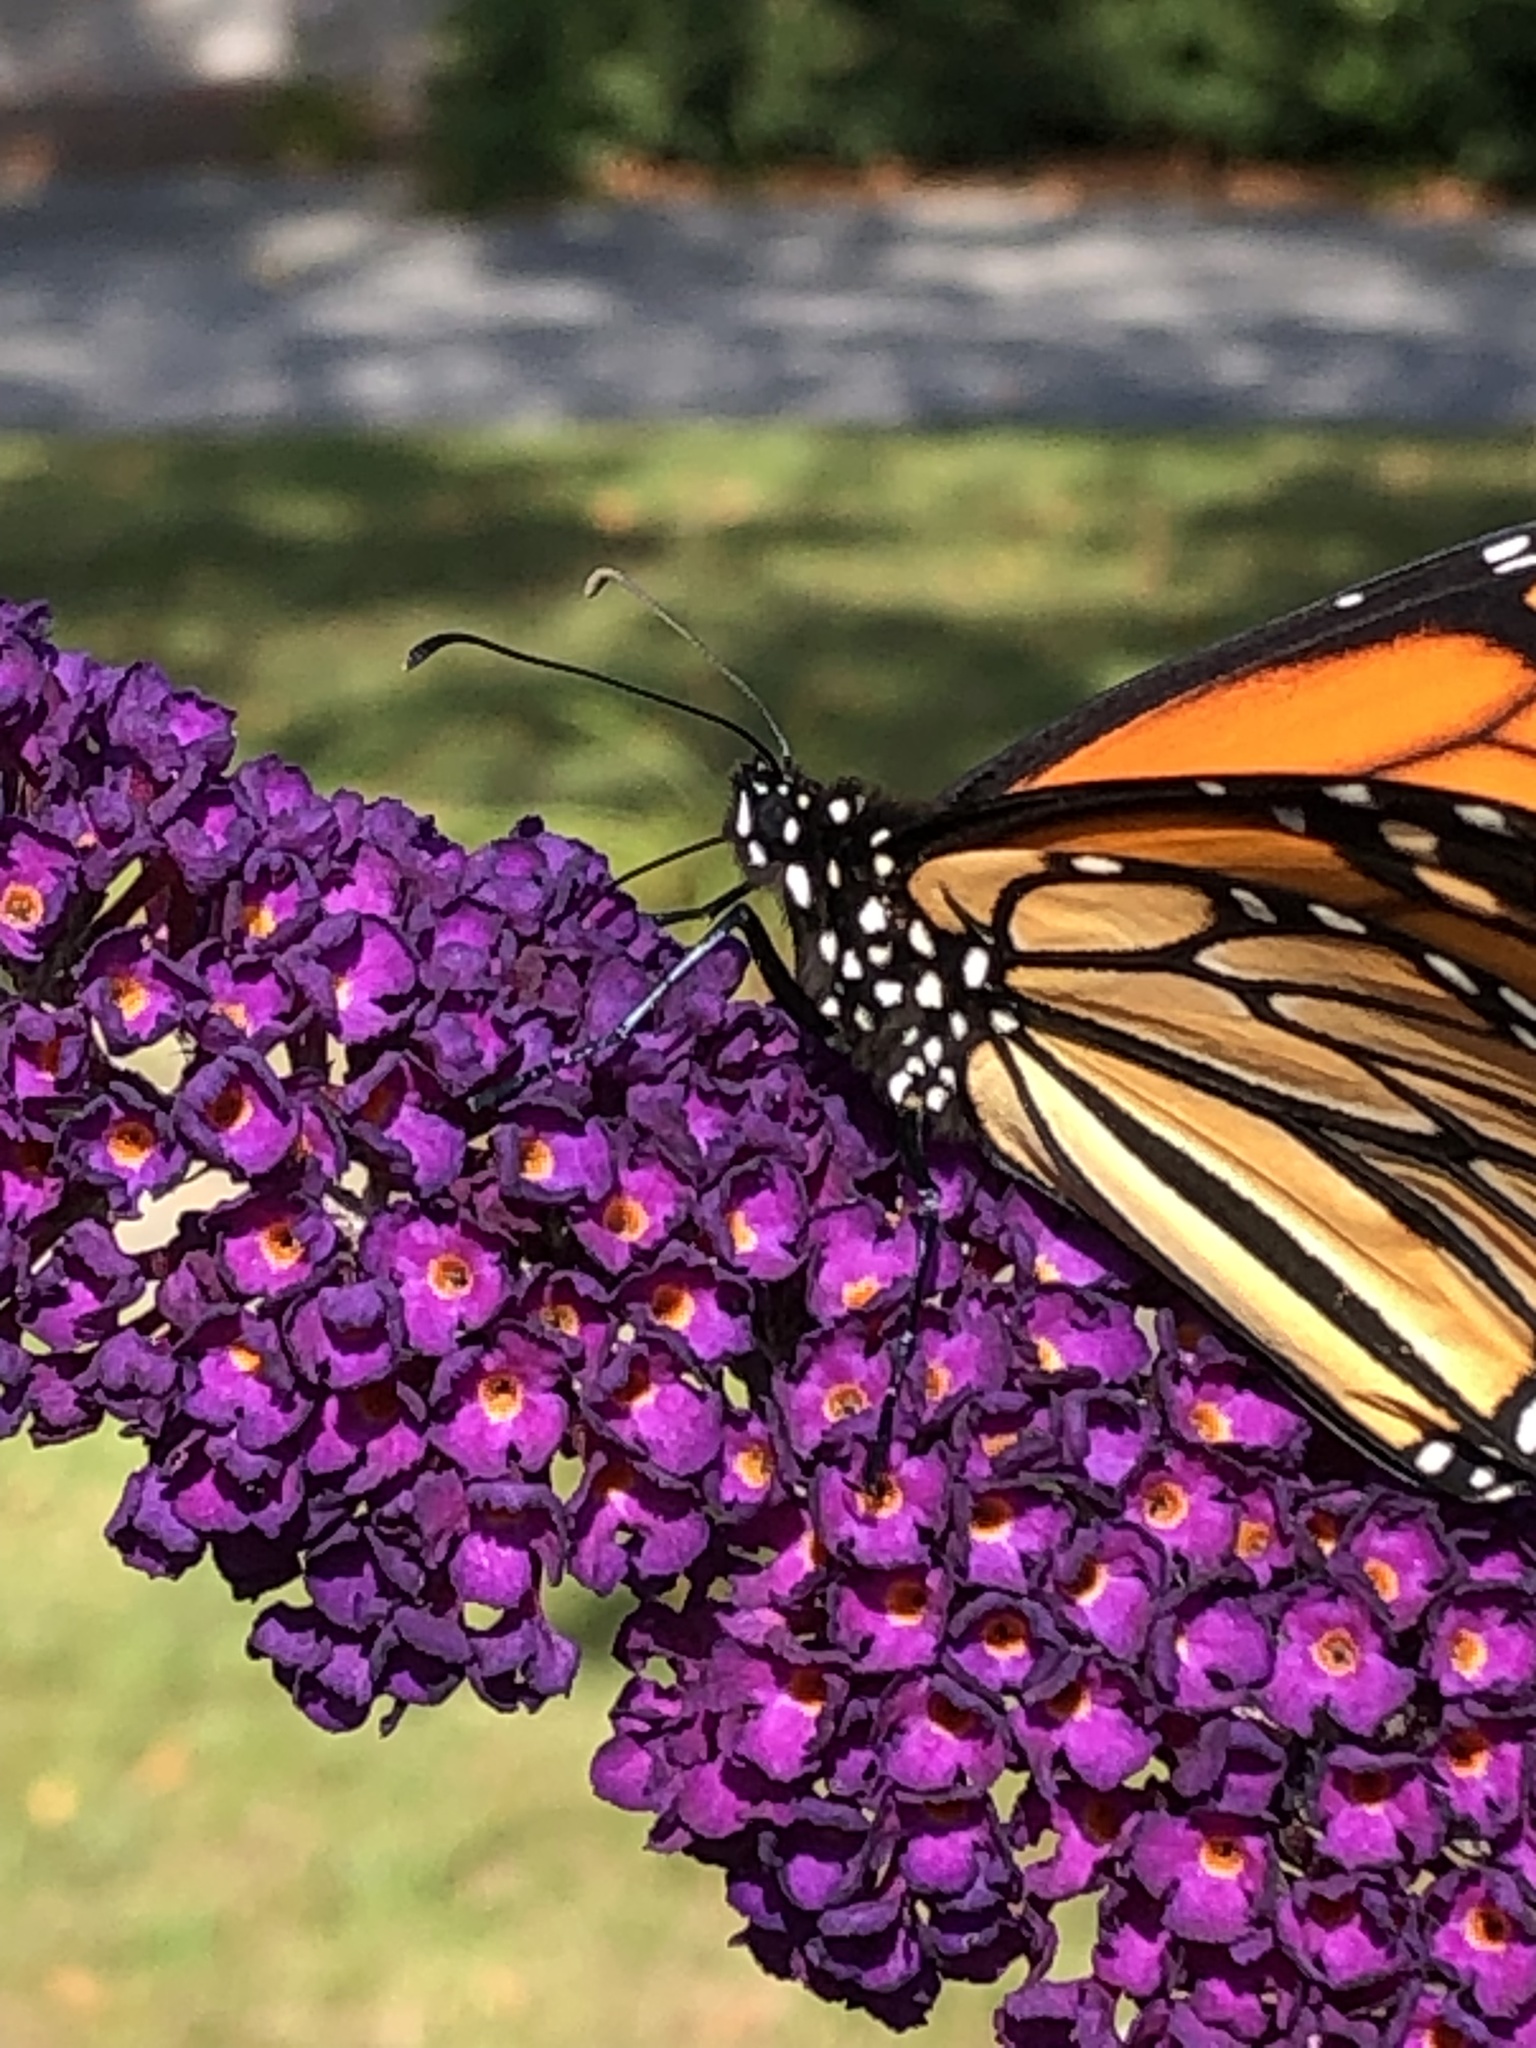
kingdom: Animalia
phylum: Arthropoda
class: Insecta
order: Lepidoptera
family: Nymphalidae
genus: Danaus
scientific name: Danaus plexippus
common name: Monarch
